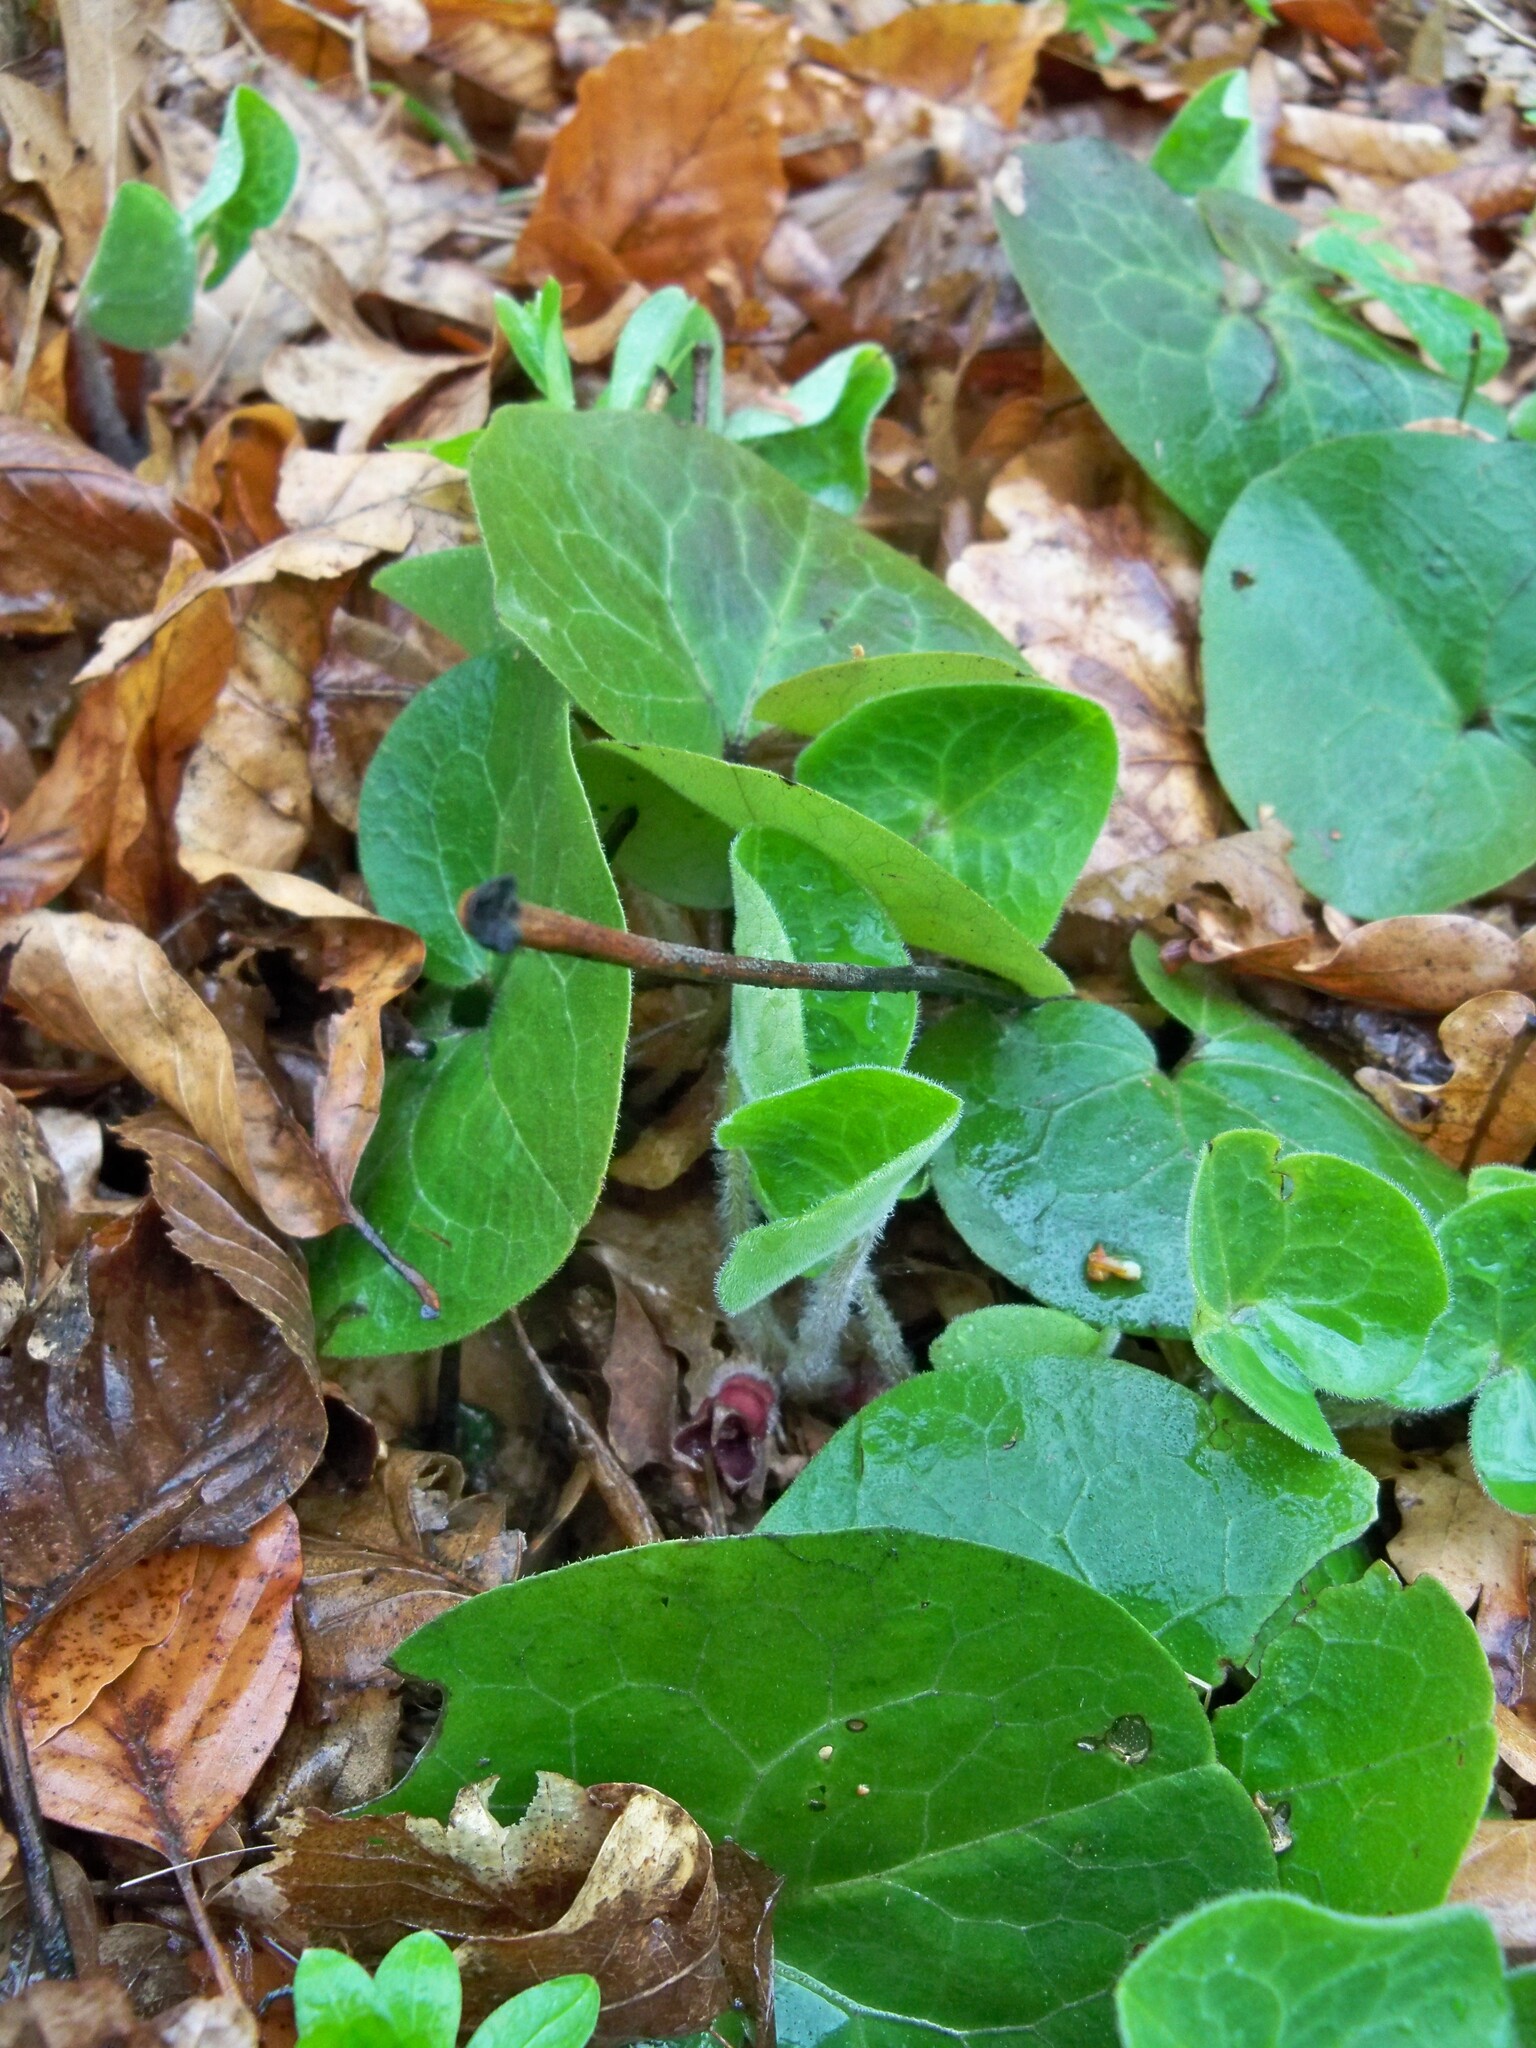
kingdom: Plantae
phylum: Tracheophyta
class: Magnoliopsida
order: Piperales
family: Aristolochiaceae
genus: Asarum
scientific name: Asarum europaeum
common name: Asarabacca
